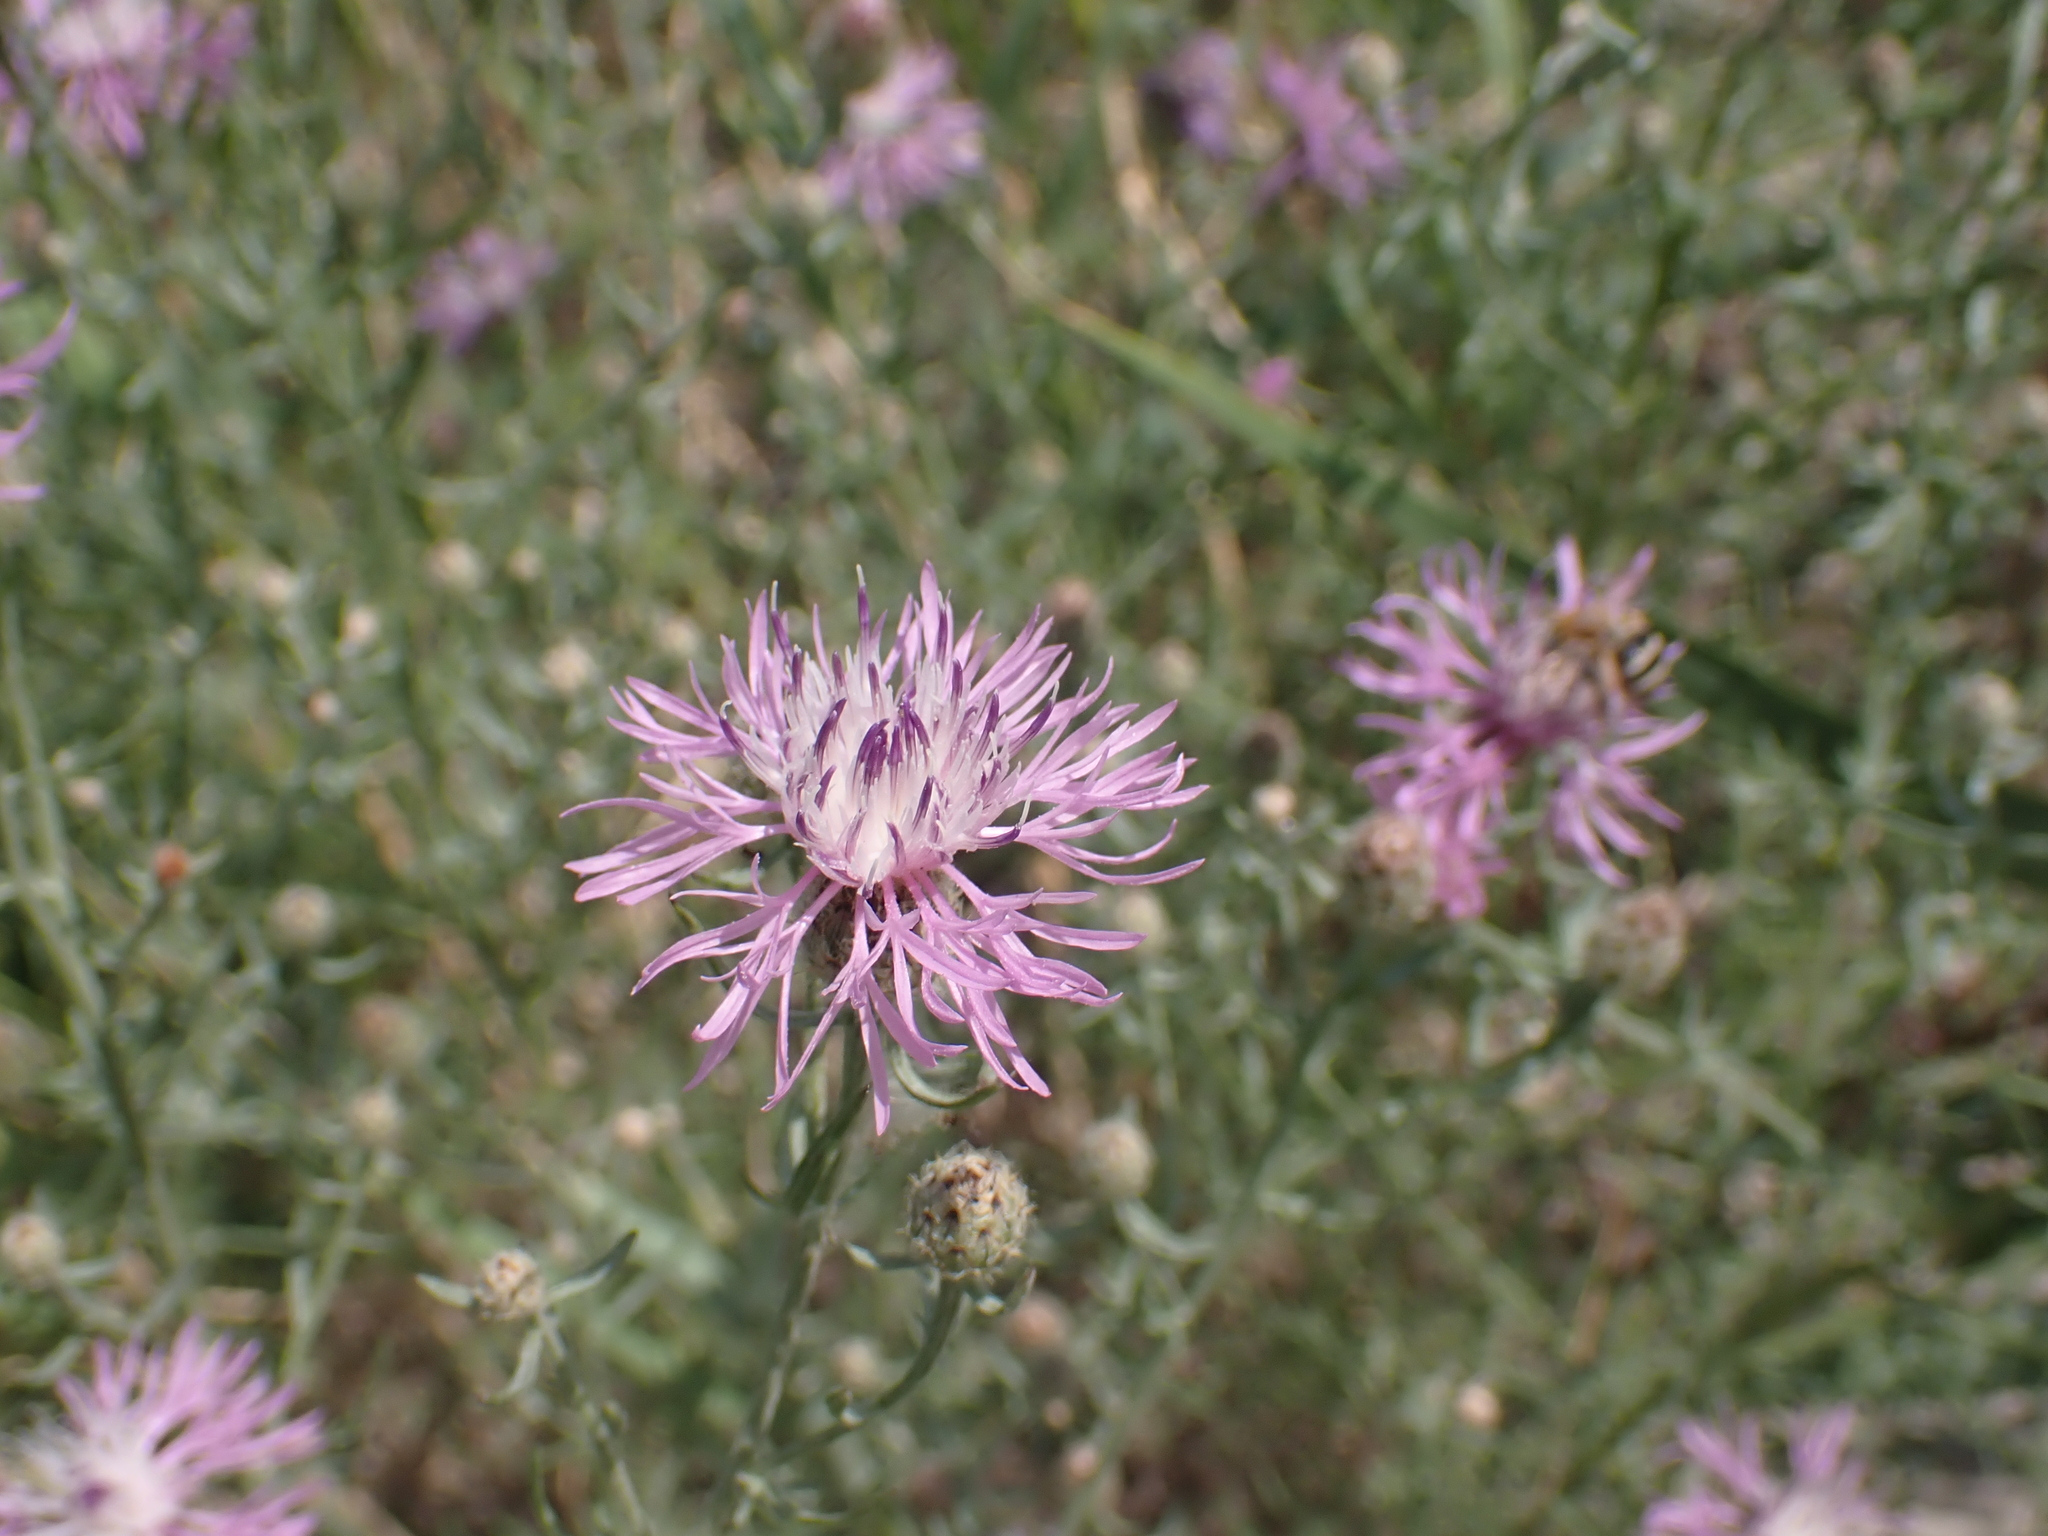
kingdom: Plantae
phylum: Tracheophyta
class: Magnoliopsida
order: Asterales
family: Asteraceae
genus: Centaurea
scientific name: Centaurea stoebe
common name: Spotted knapweed
